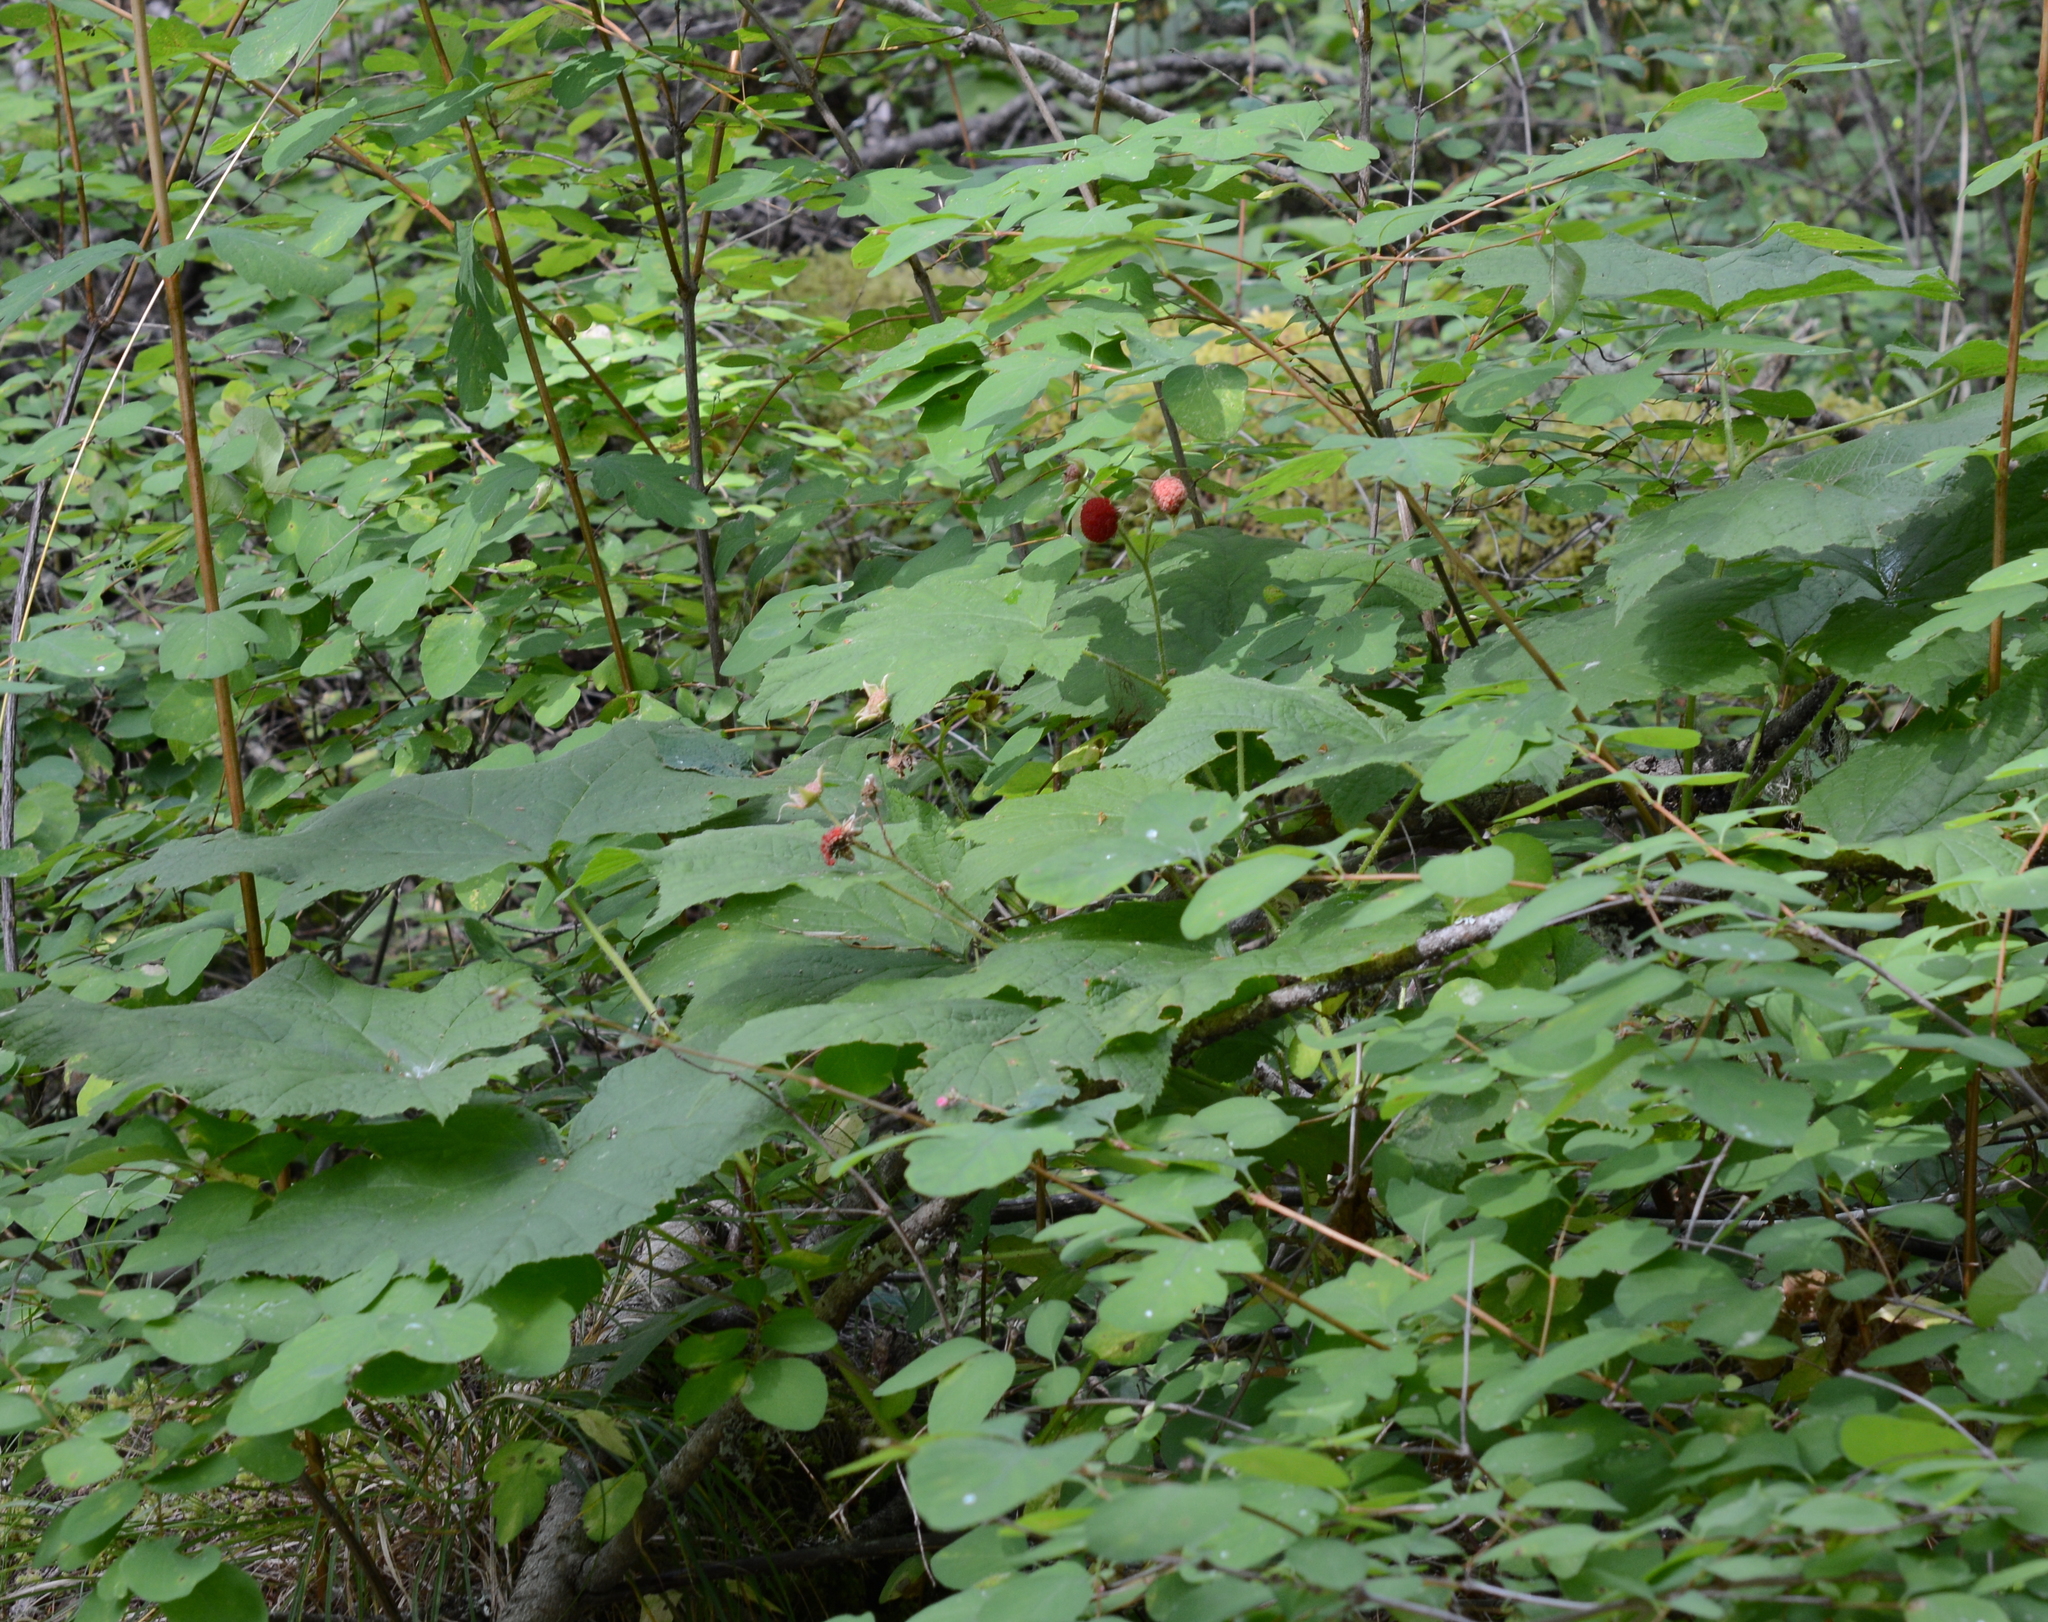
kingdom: Plantae
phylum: Tracheophyta
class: Magnoliopsida
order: Rosales
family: Rosaceae
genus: Rubus
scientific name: Rubus parviflorus
